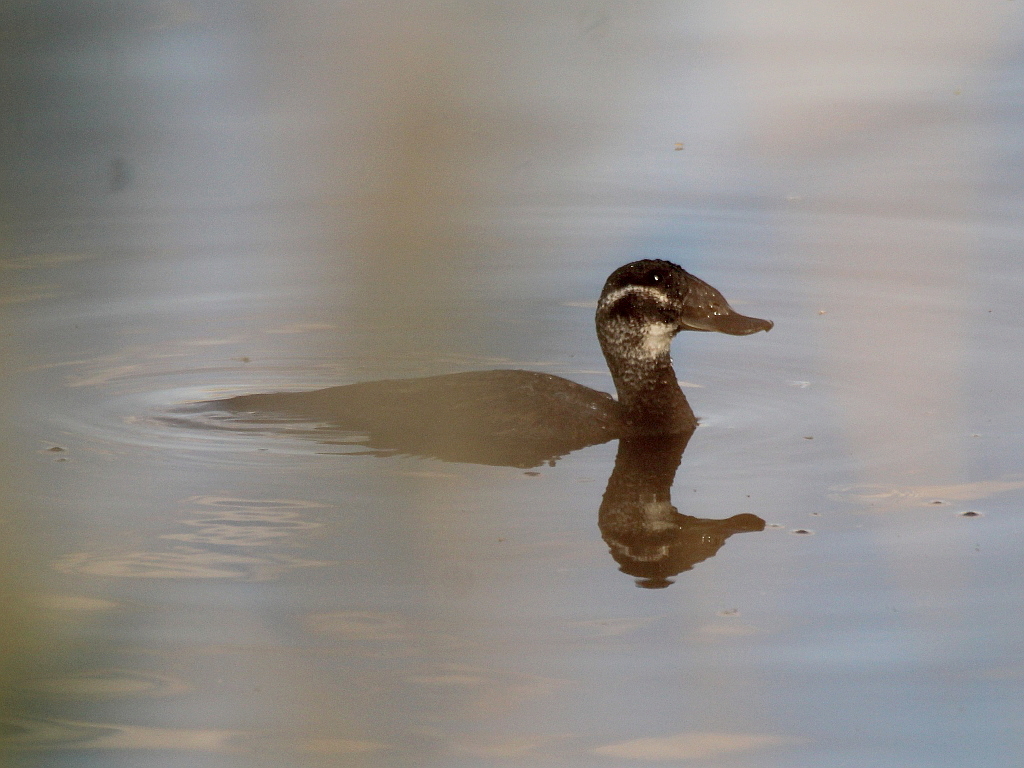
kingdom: Animalia
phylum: Chordata
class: Aves
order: Anseriformes
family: Anatidae
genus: Oxyura
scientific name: Oxyura leucocephala
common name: White-headed duck
